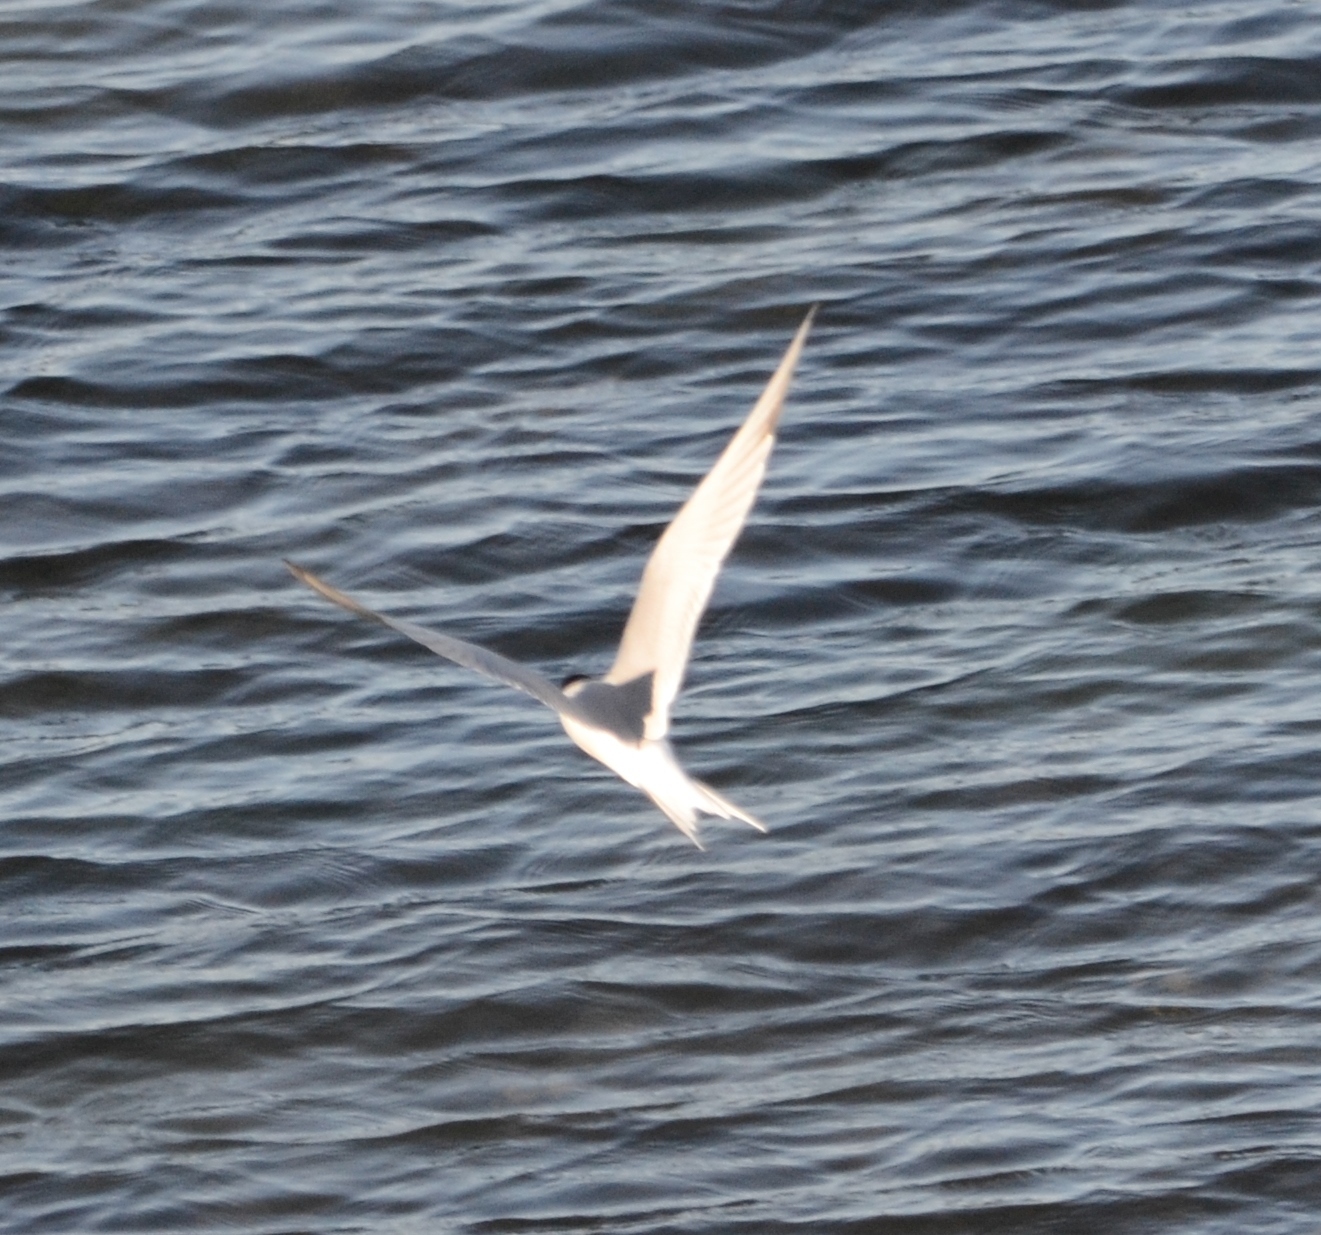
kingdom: Animalia
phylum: Chordata
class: Aves
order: Charadriiformes
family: Laridae
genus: Sterna
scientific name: Sterna hirundo
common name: Common tern
